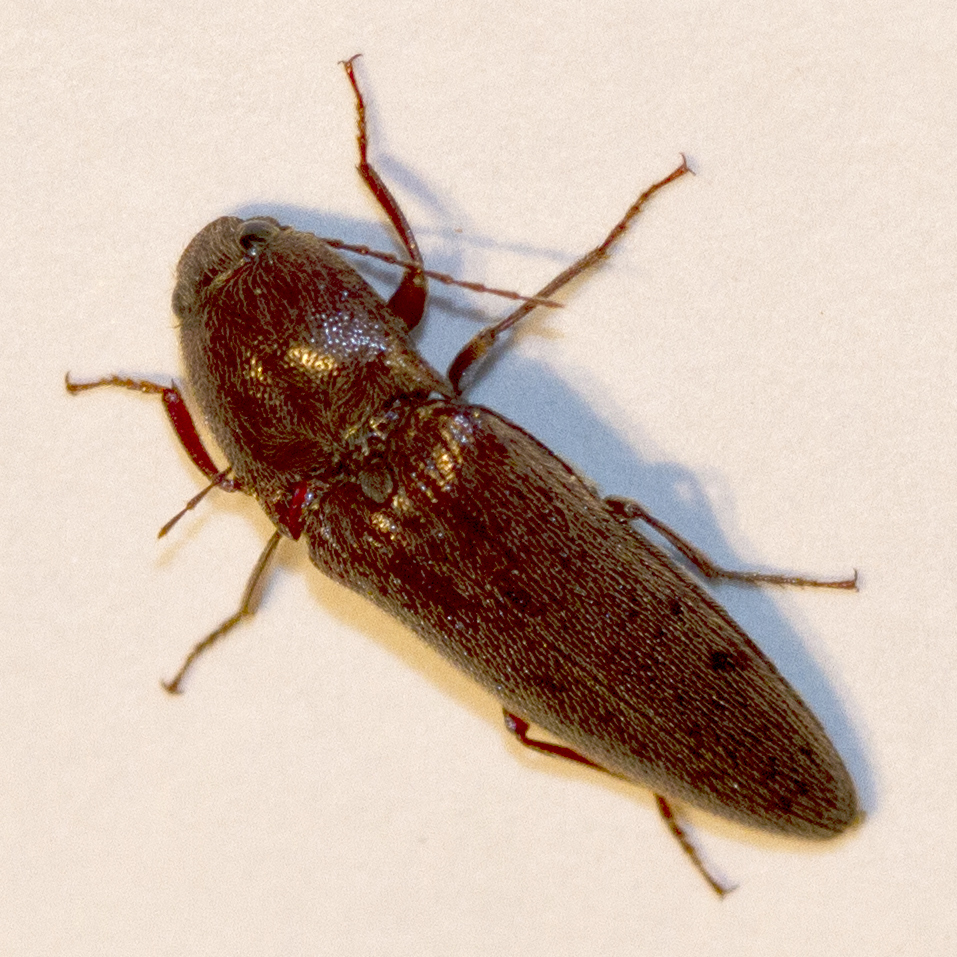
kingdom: Animalia
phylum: Arthropoda
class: Insecta
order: Coleoptera
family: Elateridae
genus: Melanotus
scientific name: Melanotus
